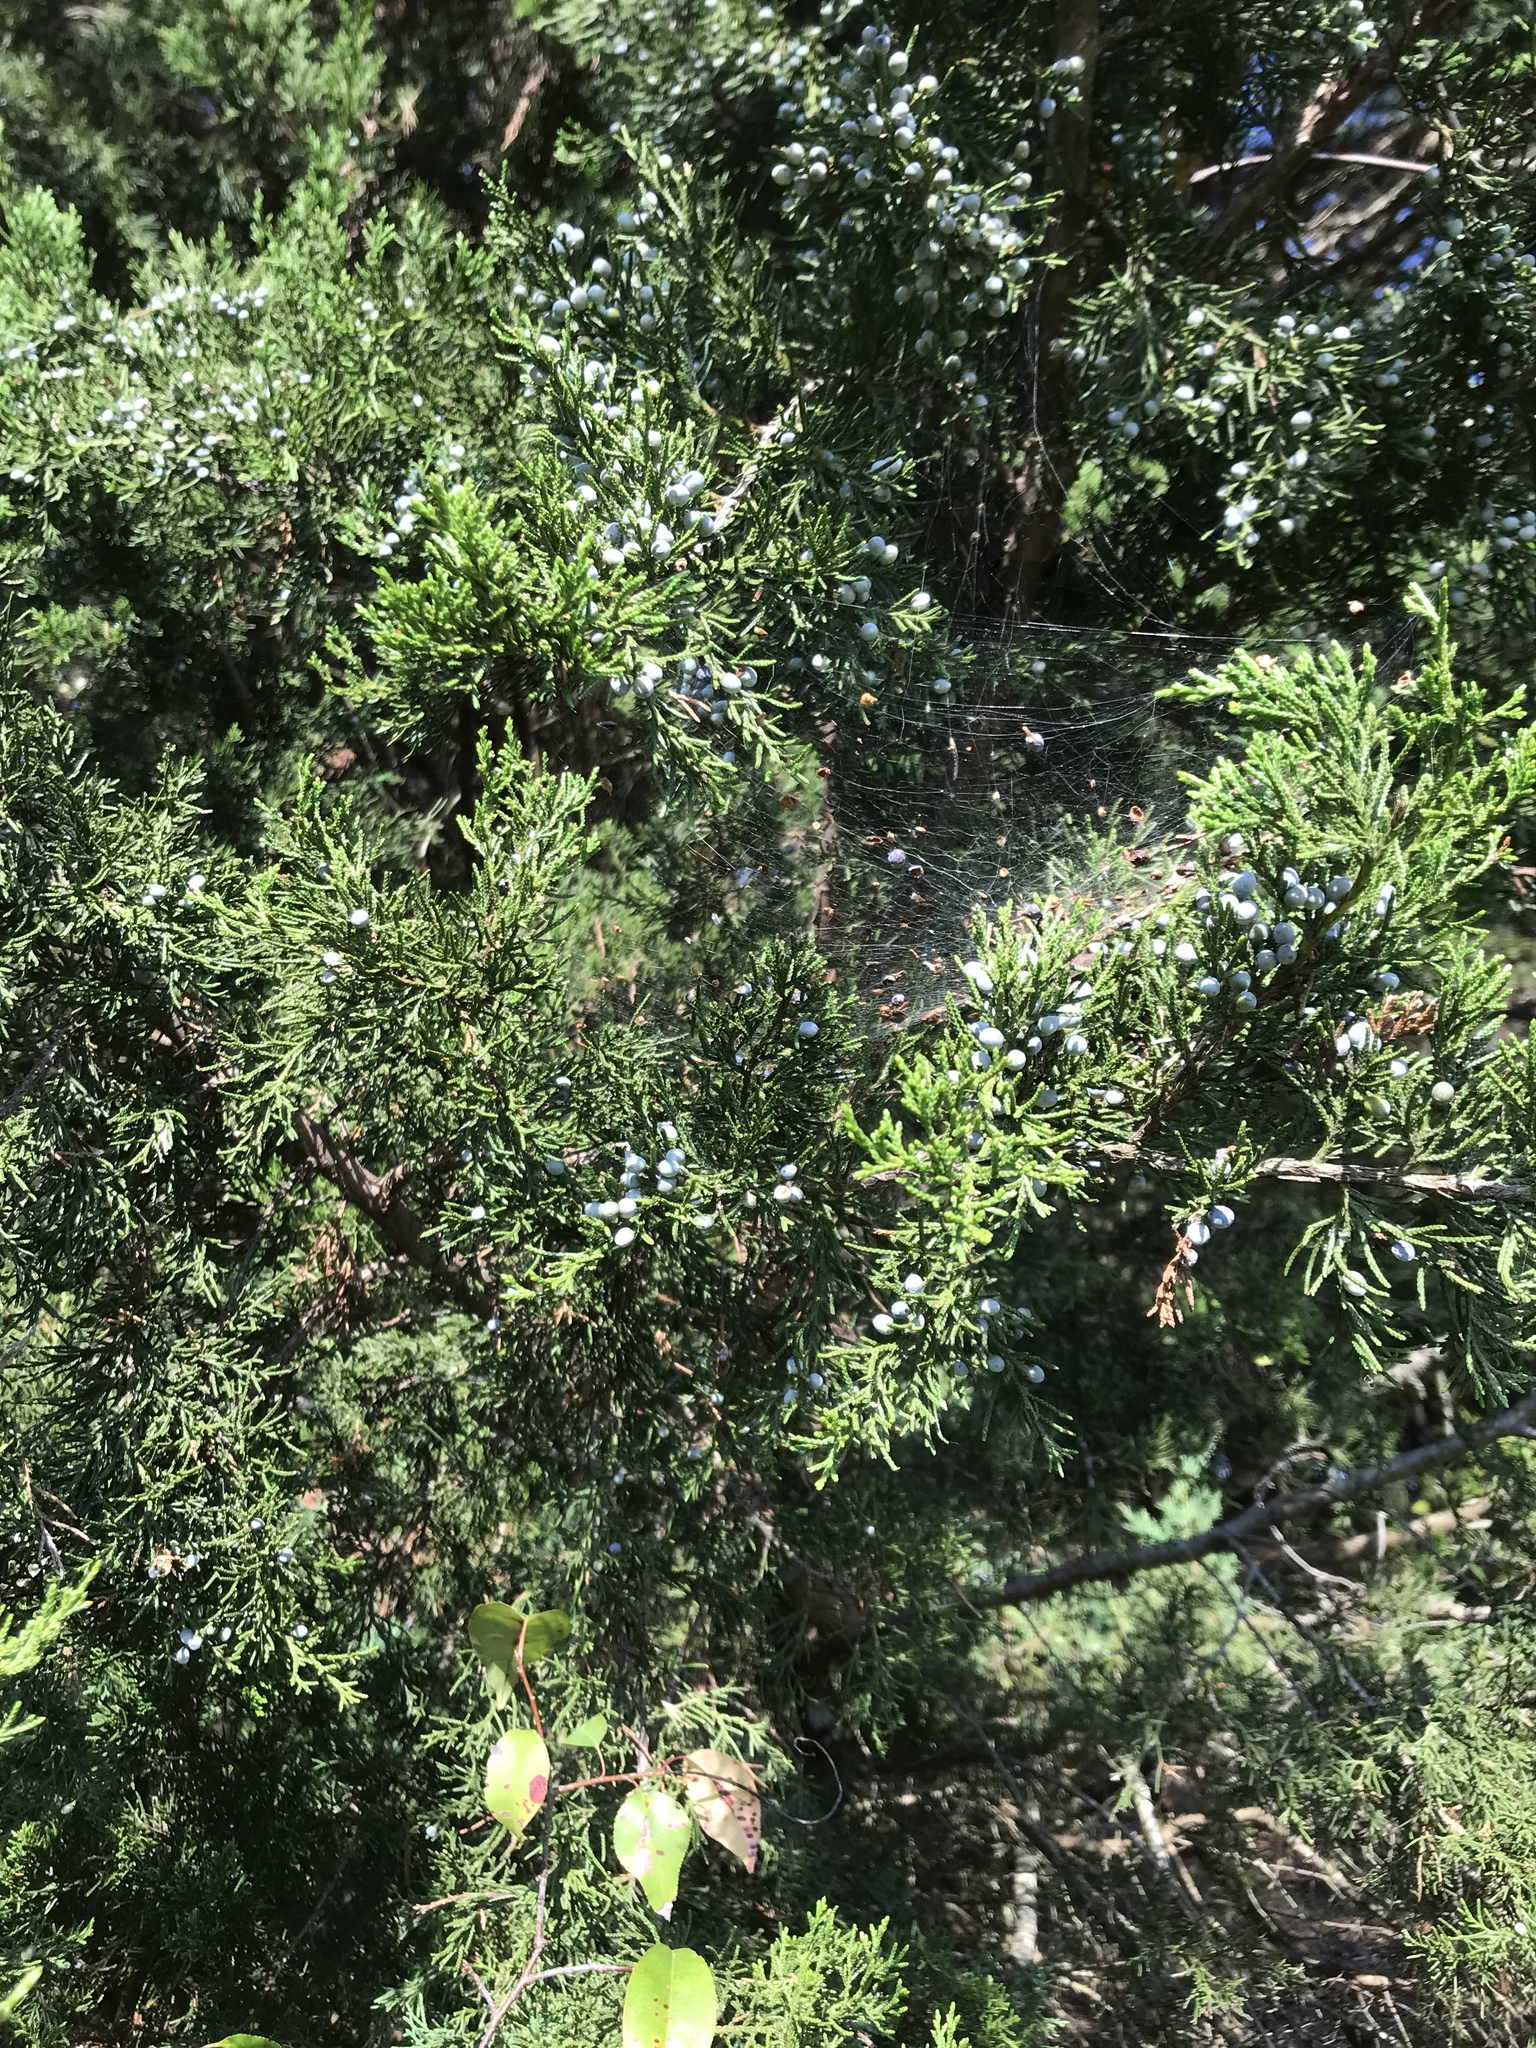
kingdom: Plantae
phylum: Tracheophyta
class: Pinopsida
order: Pinales
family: Cupressaceae
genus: Juniperus
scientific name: Juniperus virginiana
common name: Red juniper
